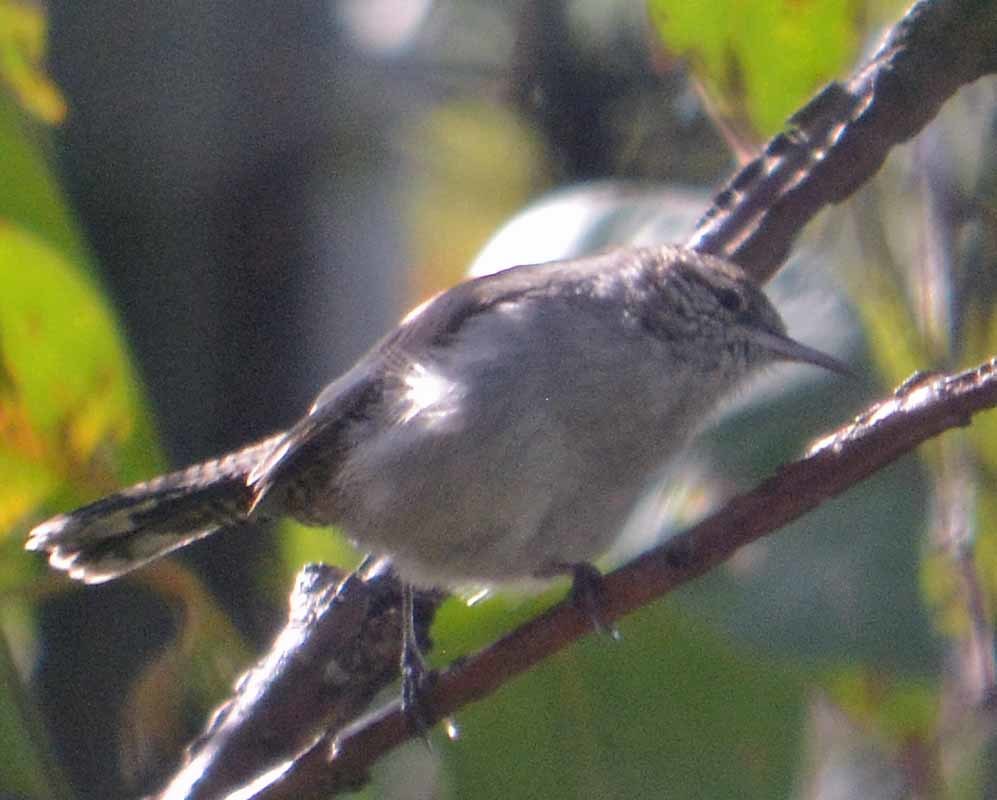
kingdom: Animalia
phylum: Chordata
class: Aves
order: Passeriformes
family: Troglodytidae
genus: Thryomanes
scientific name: Thryomanes bewickii
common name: Bewick's wren
